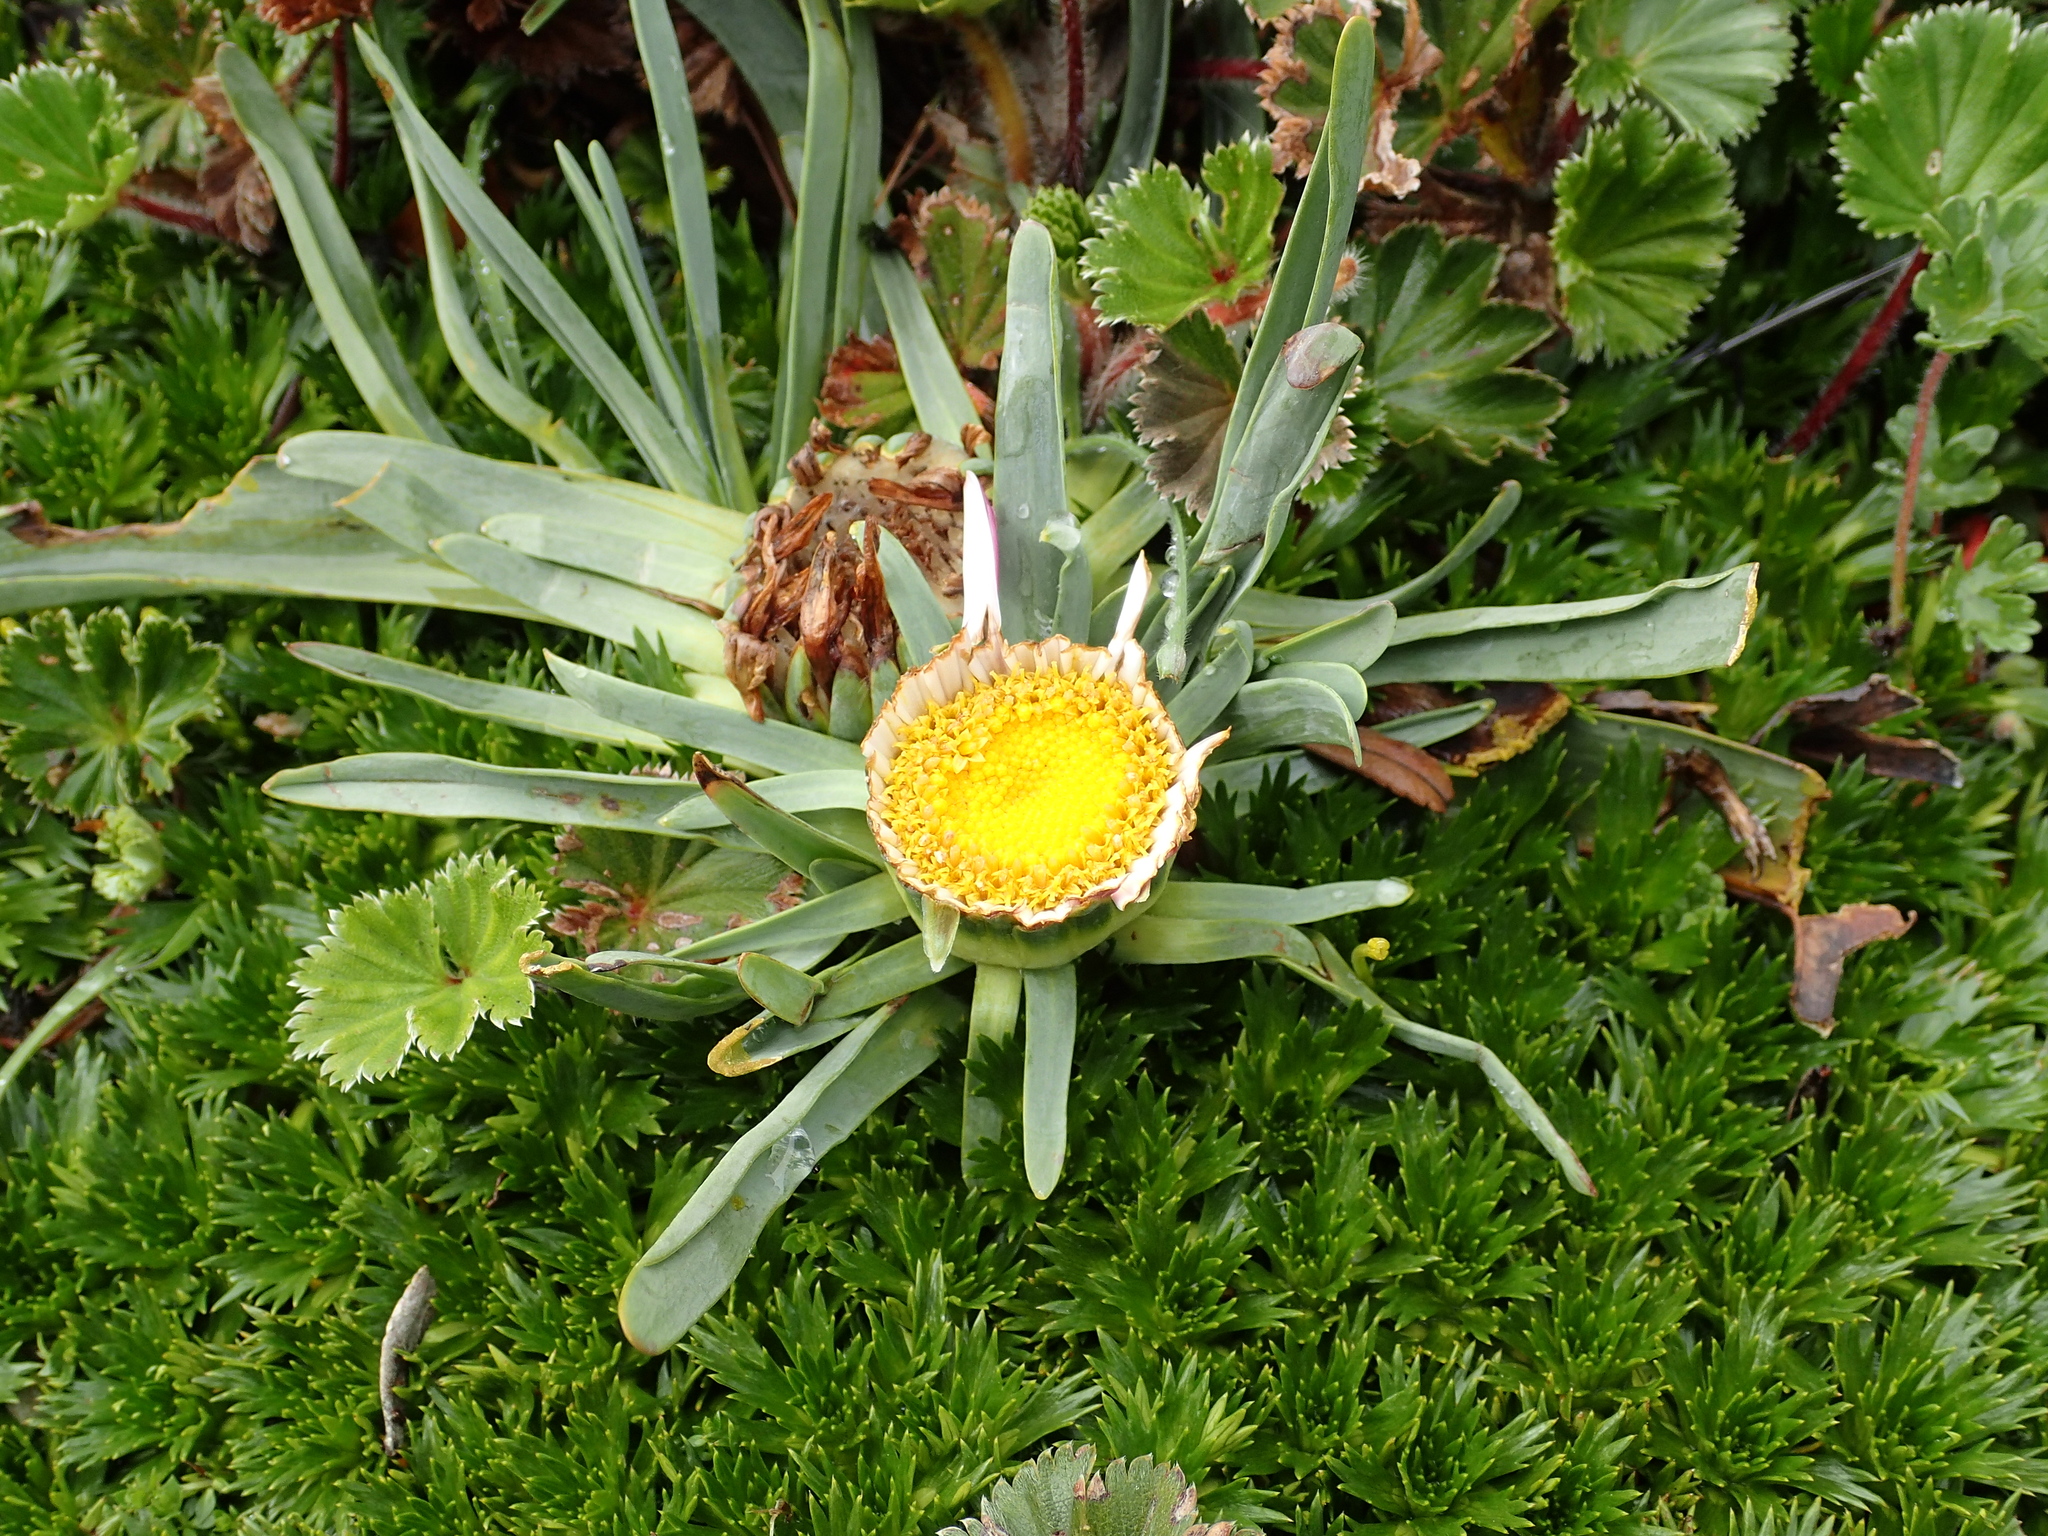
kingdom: Plantae
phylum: Tracheophyta
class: Magnoliopsida
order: Asterales
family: Asteraceae
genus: Rockhausenia
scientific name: Rockhausenia nubigena
